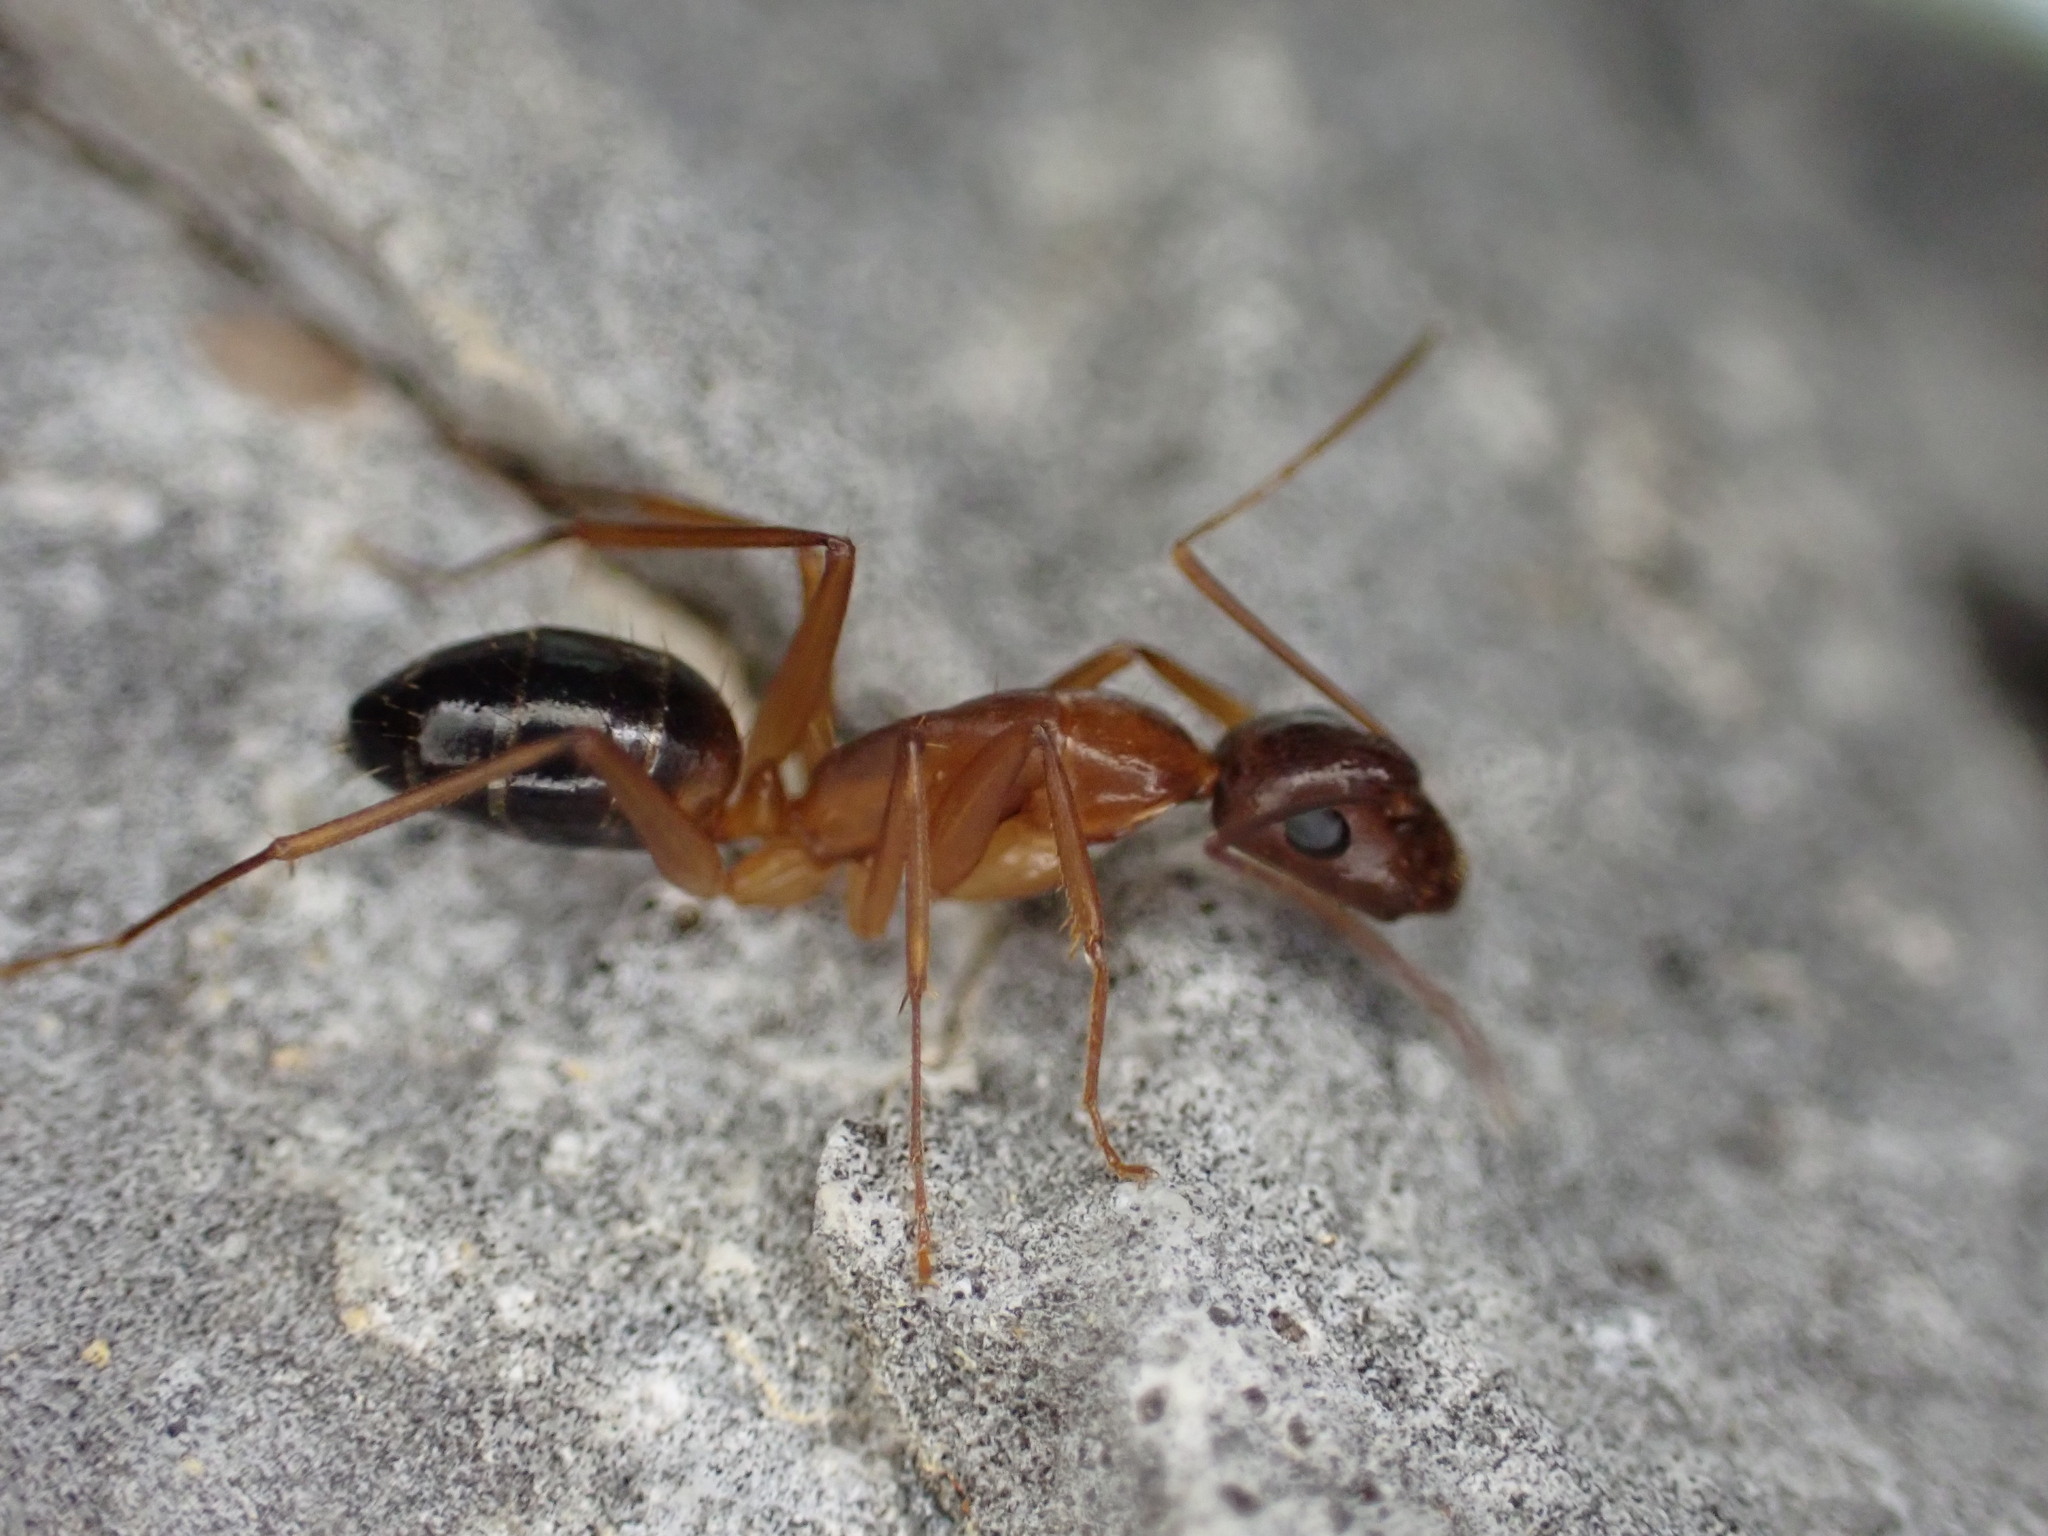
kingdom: Animalia
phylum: Arthropoda
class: Insecta
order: Hymenoptera
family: Formicidae
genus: Camponotus
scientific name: Camponotus pilicornis
